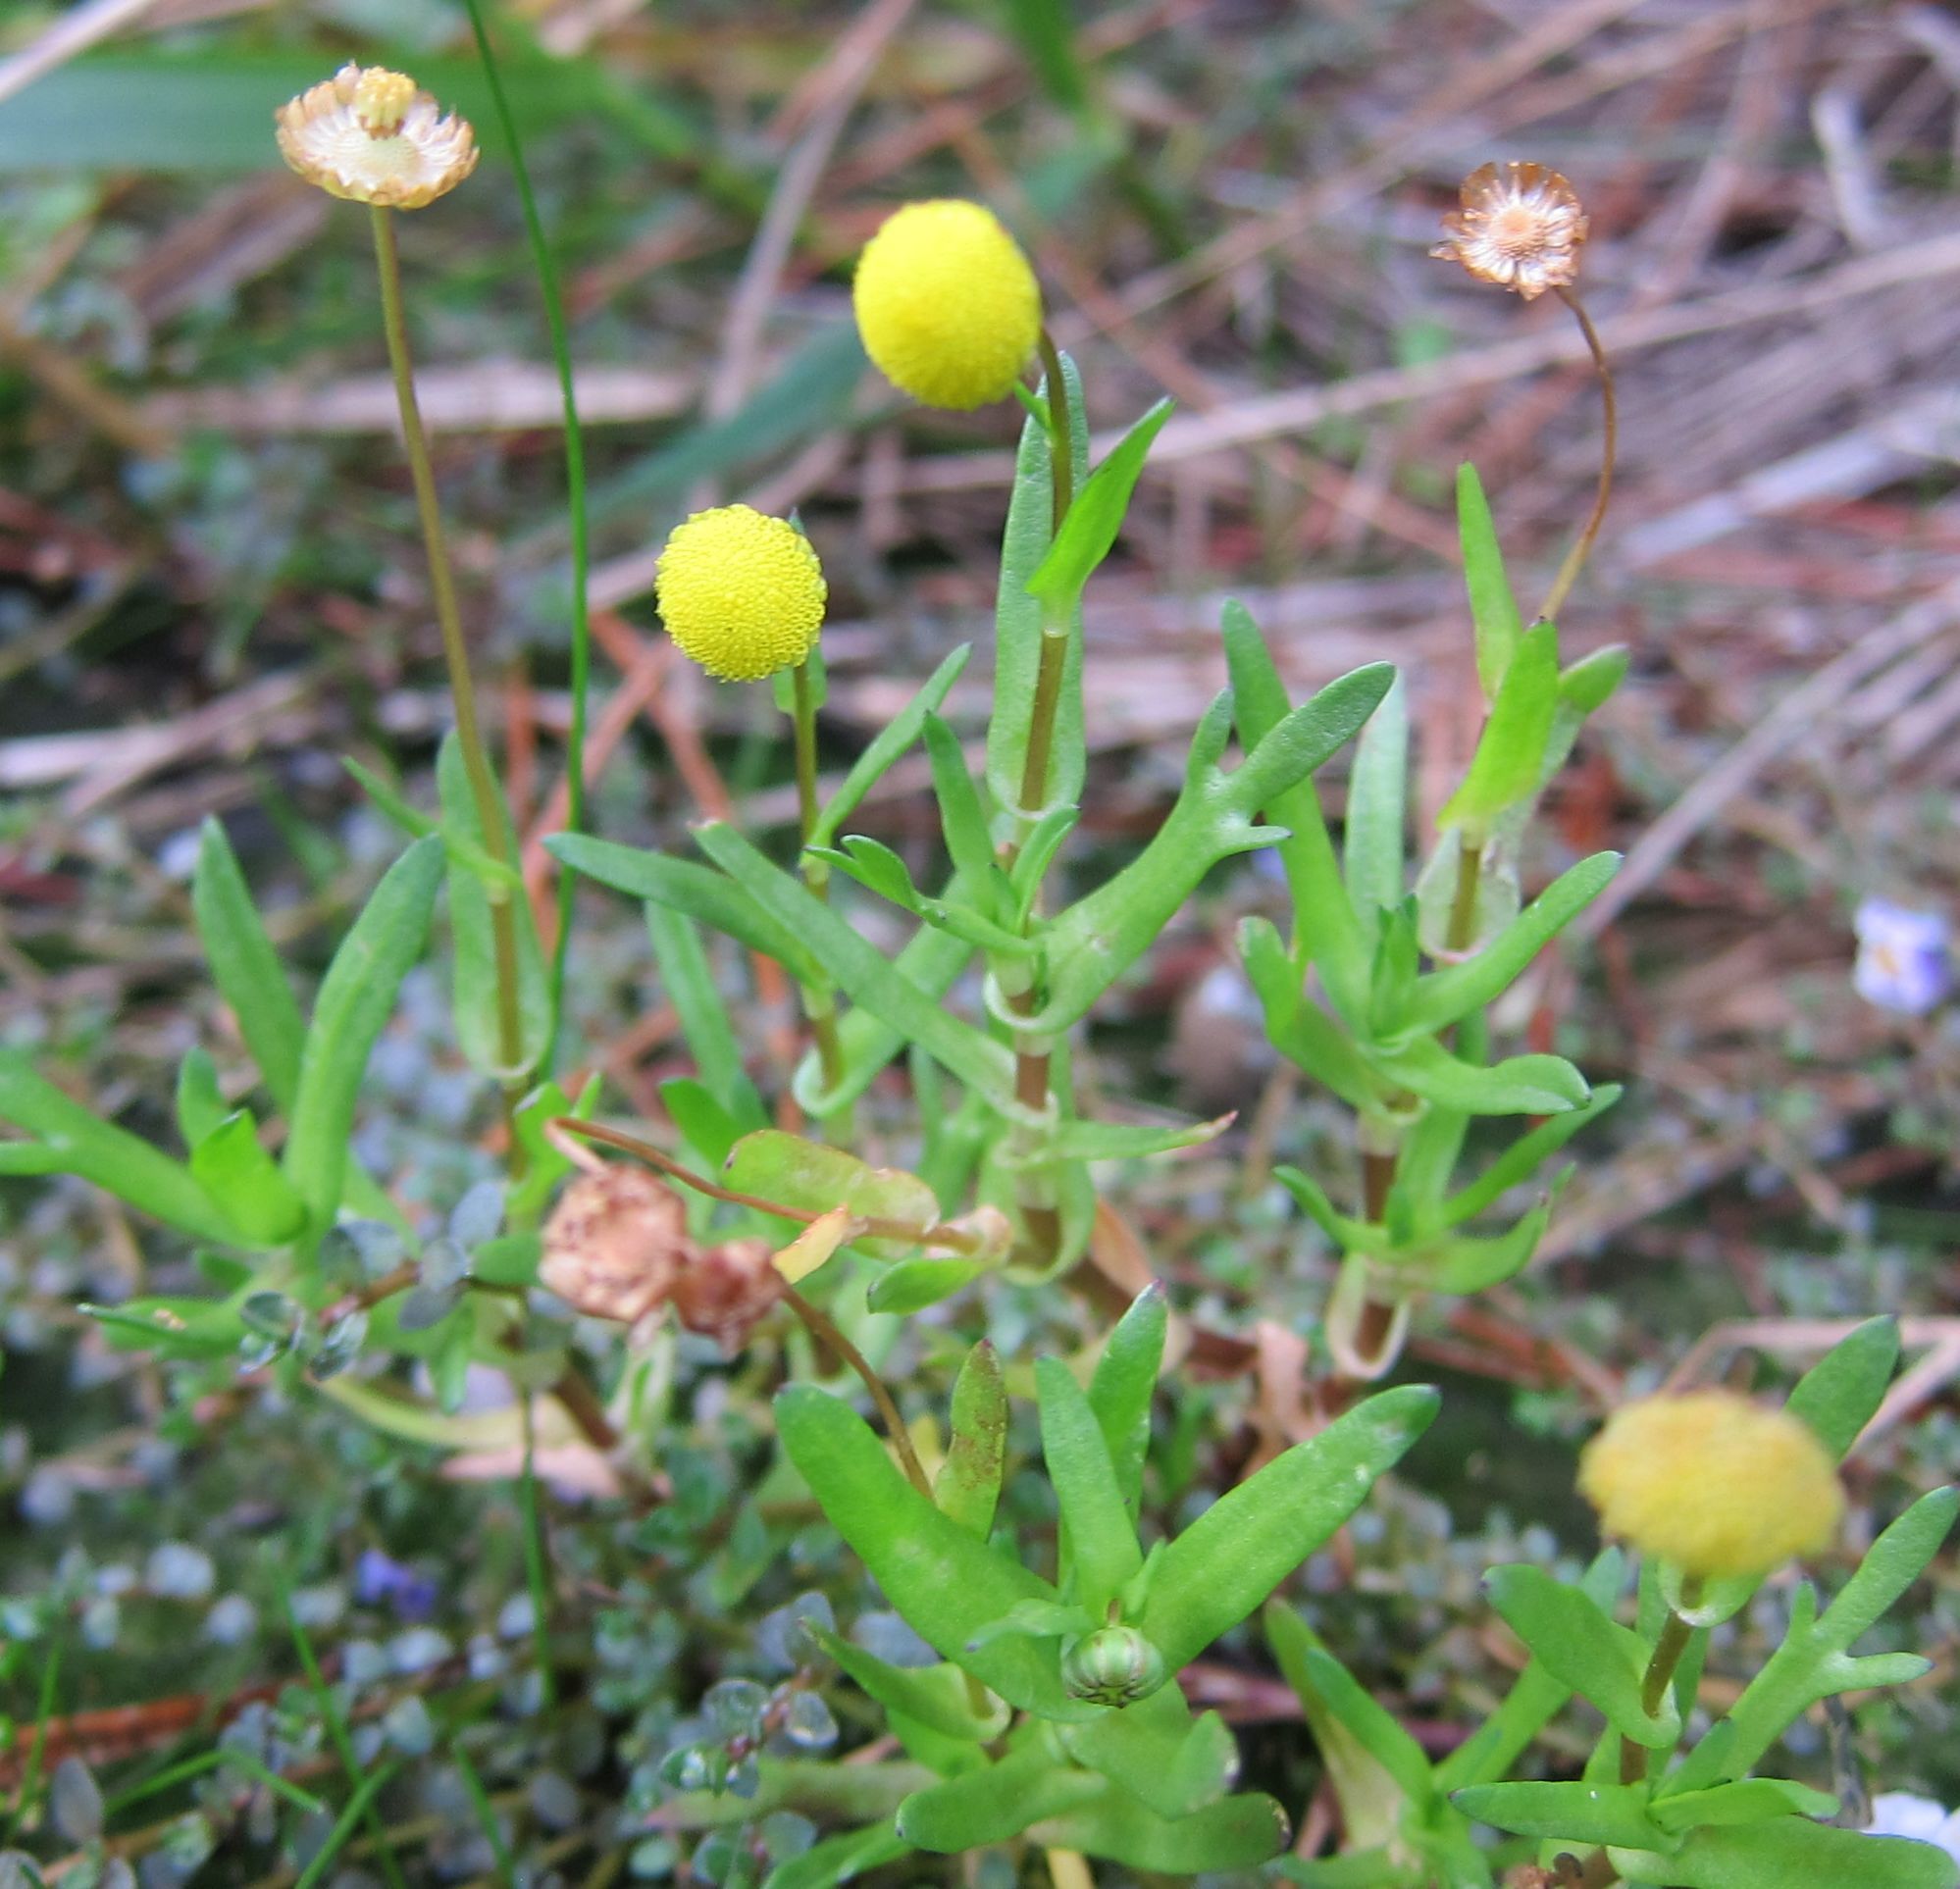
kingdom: Plantae
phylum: Tracheophyta
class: Magnoliopsida
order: Asterales
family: Asteraceae
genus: Cotula
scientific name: Cotula coronopifolia
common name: Buttonweed
